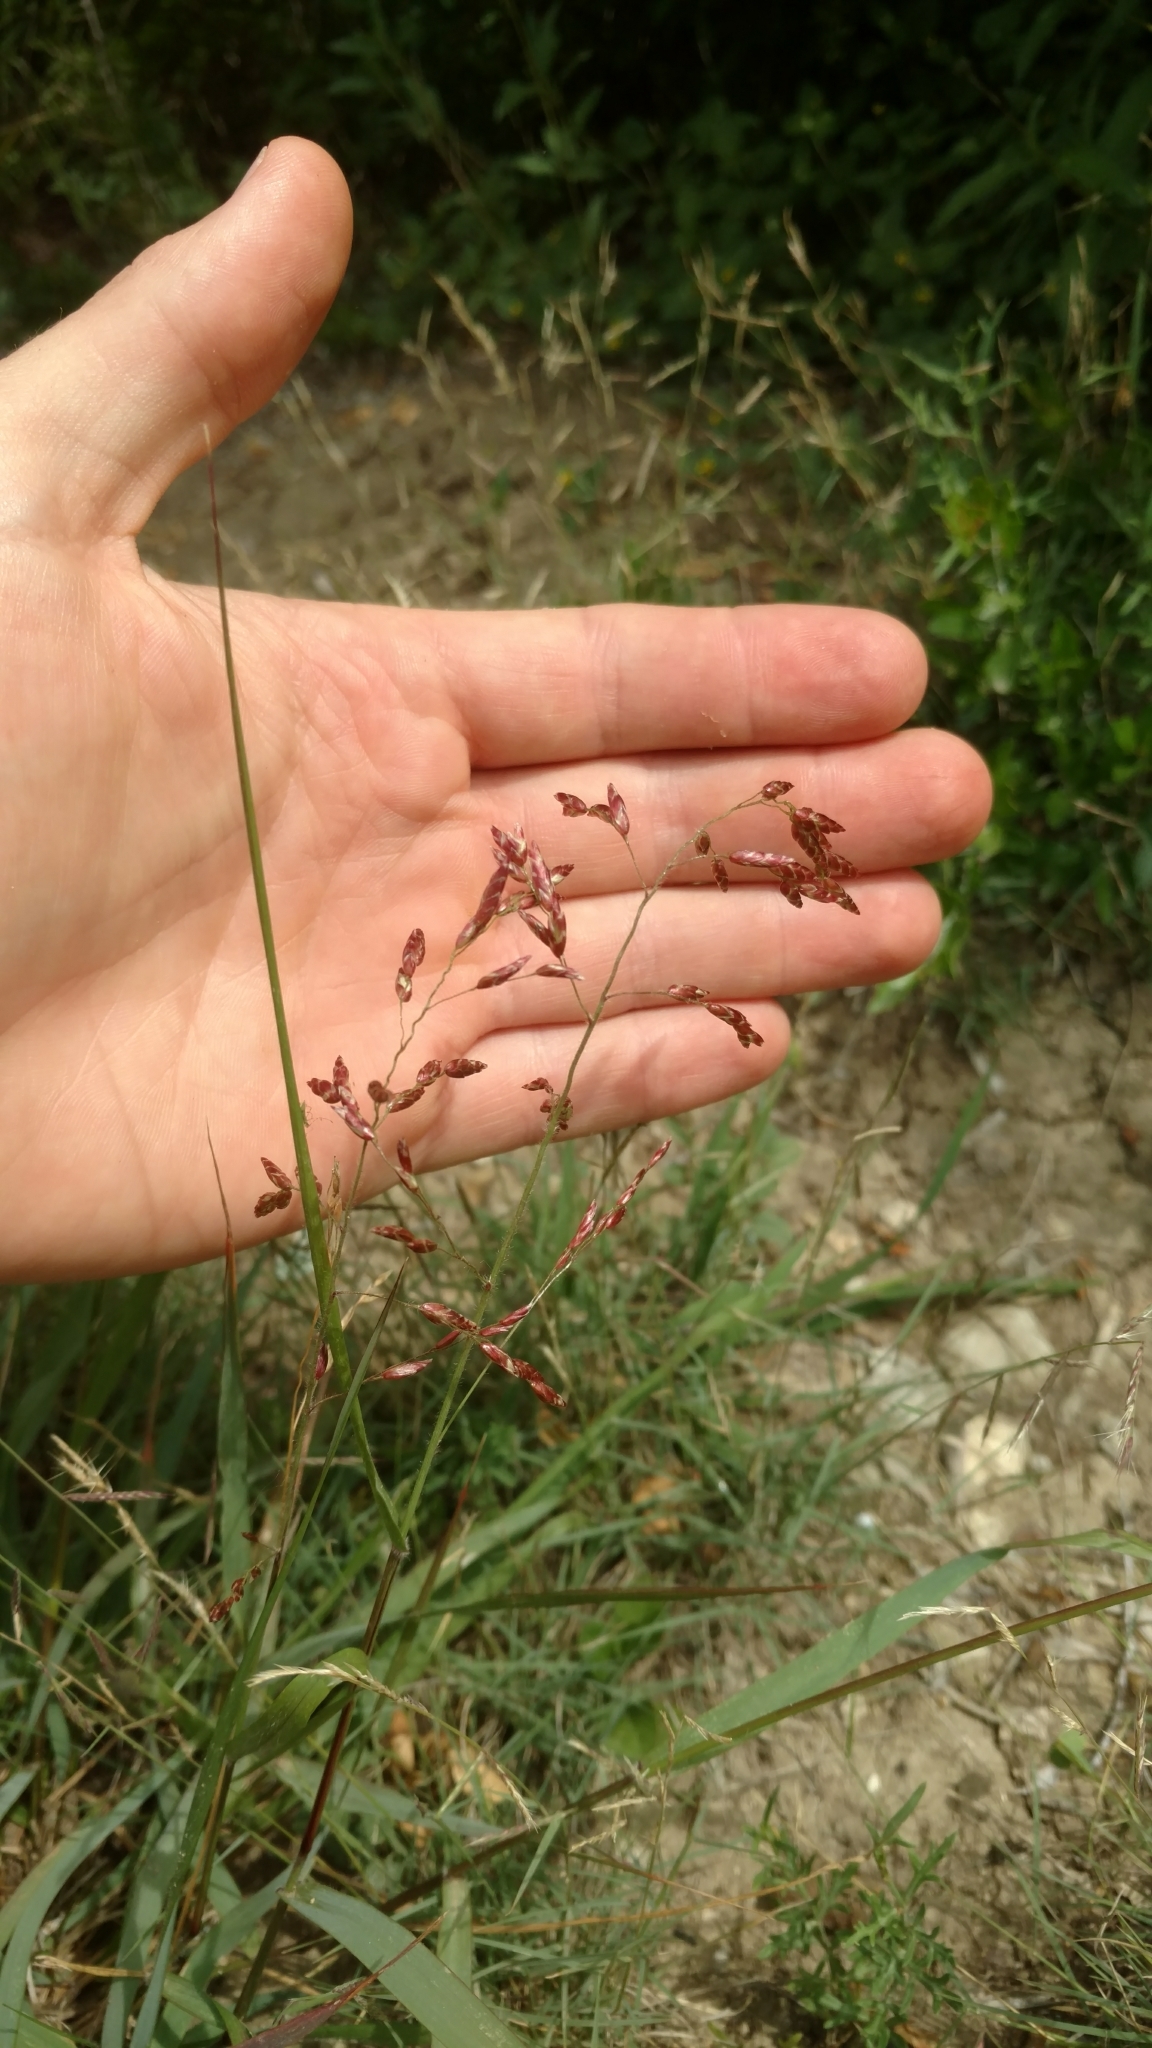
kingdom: Plantae
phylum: Tracheophyta
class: Liliopsida
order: Poales
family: Poaceae
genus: Tridens
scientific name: Tridens texanus
